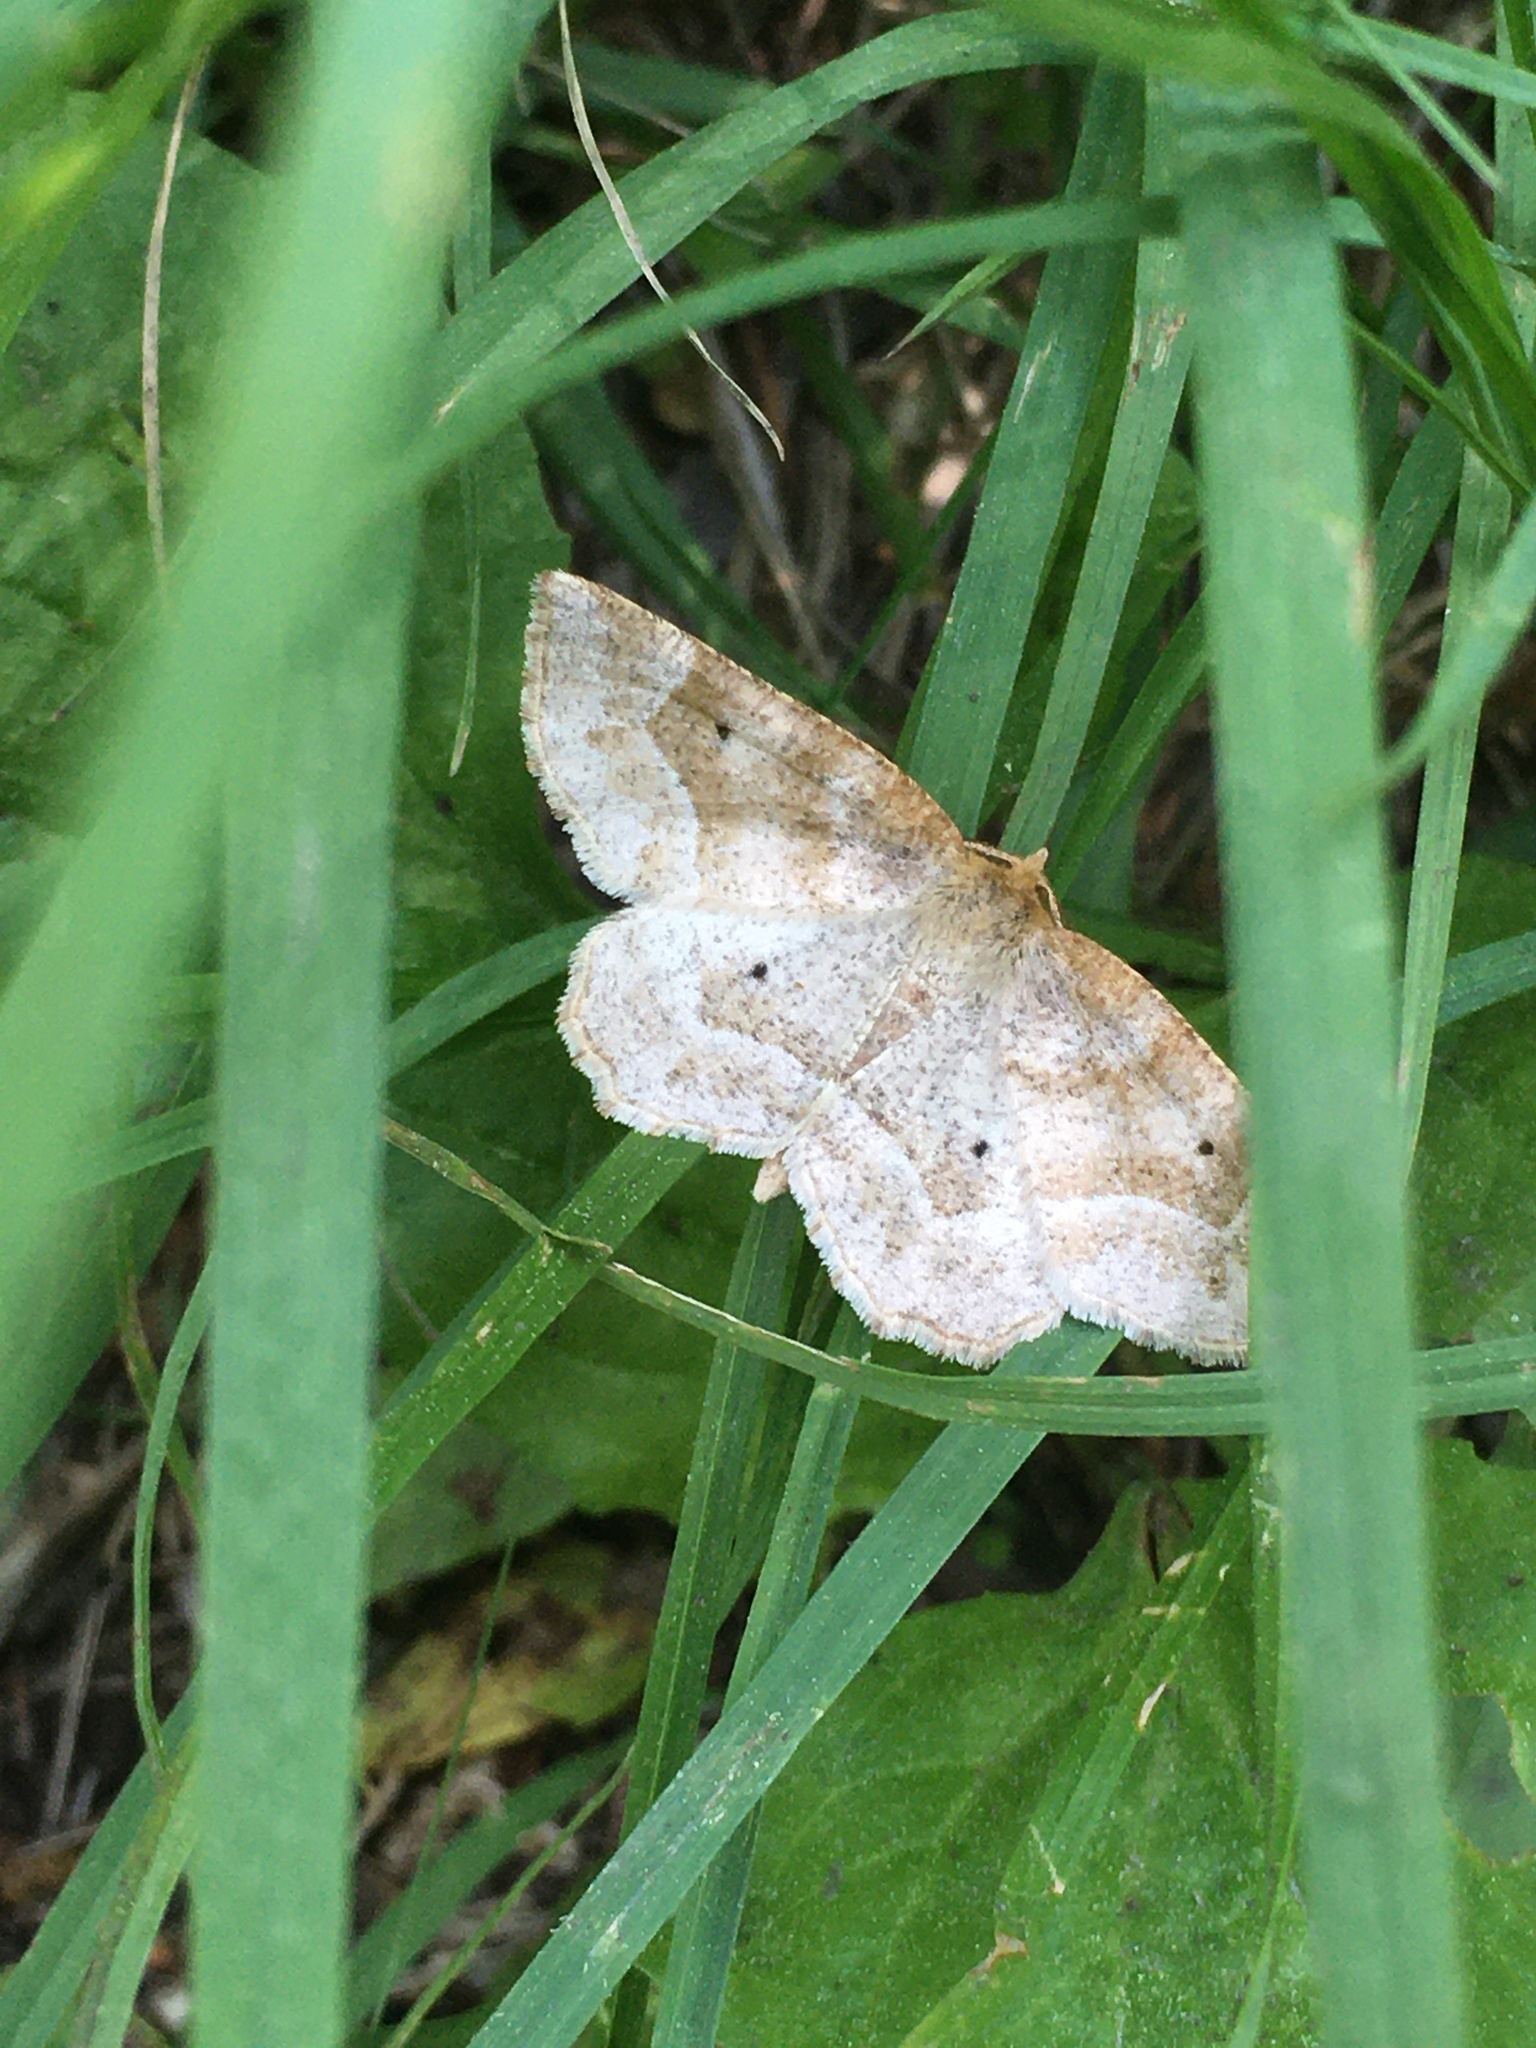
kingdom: Animalia
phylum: Arthropoda
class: Insecta
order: Lepidoptera
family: Geometridae
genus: Metarranthis
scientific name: Metarranthis indeclinata
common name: Pale metarranthis
